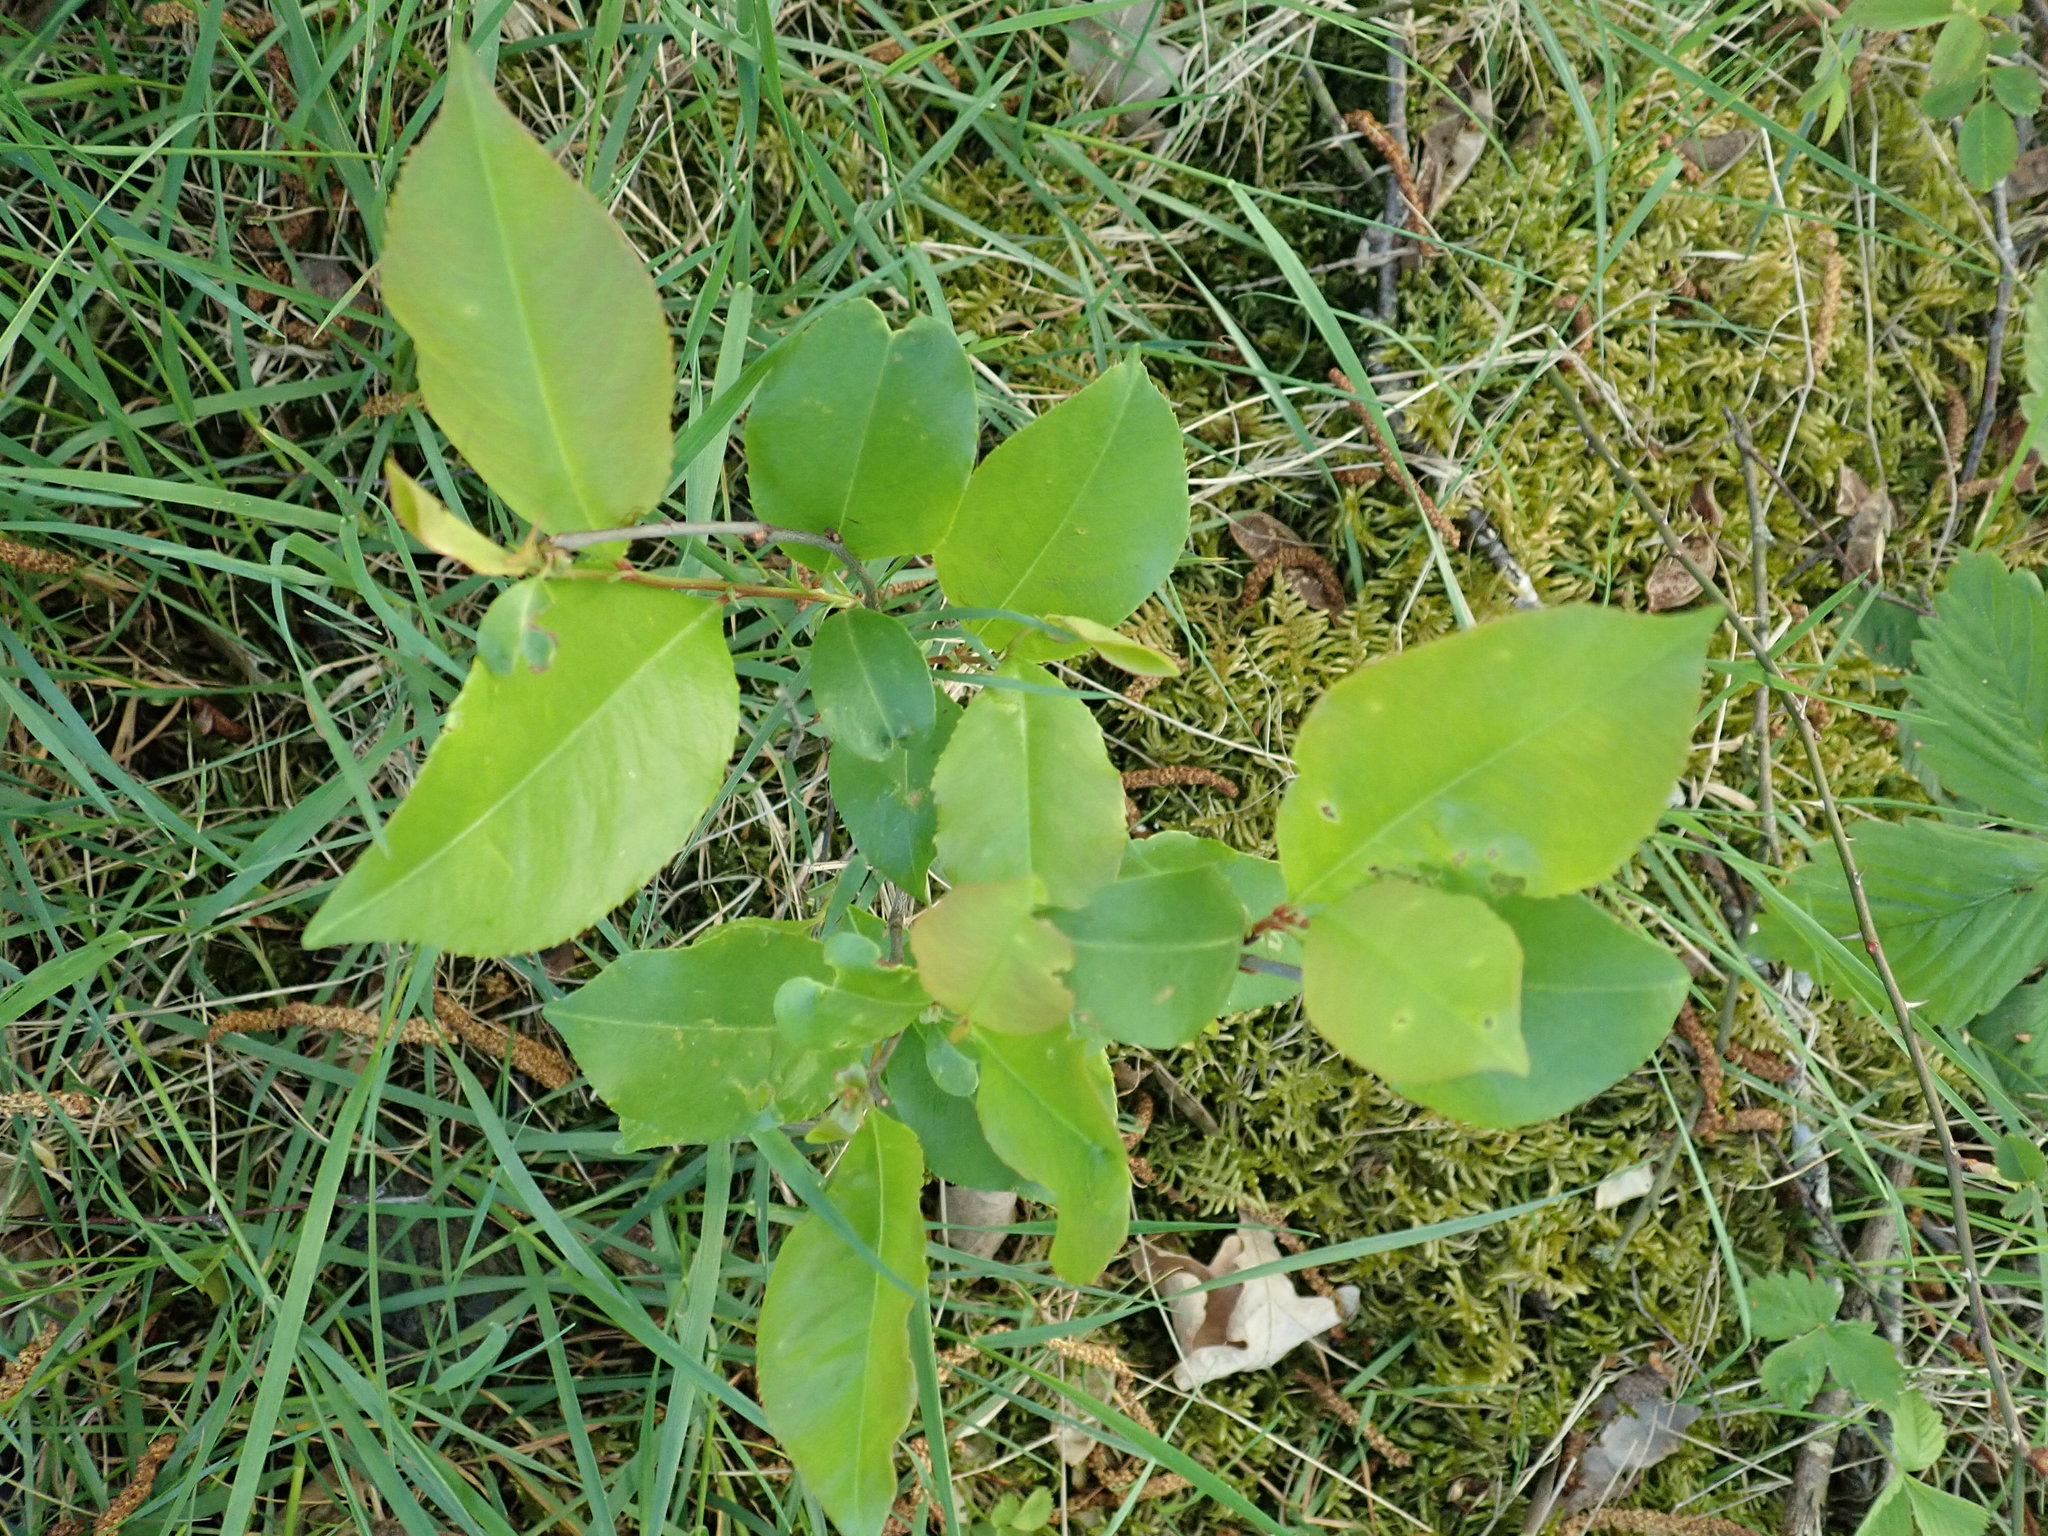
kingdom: Plantae
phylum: Tracheophyta
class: Magnoliopsida
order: Rosales
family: Rosaceae
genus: Prunus
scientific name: Prunus serotina
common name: Black cherry
